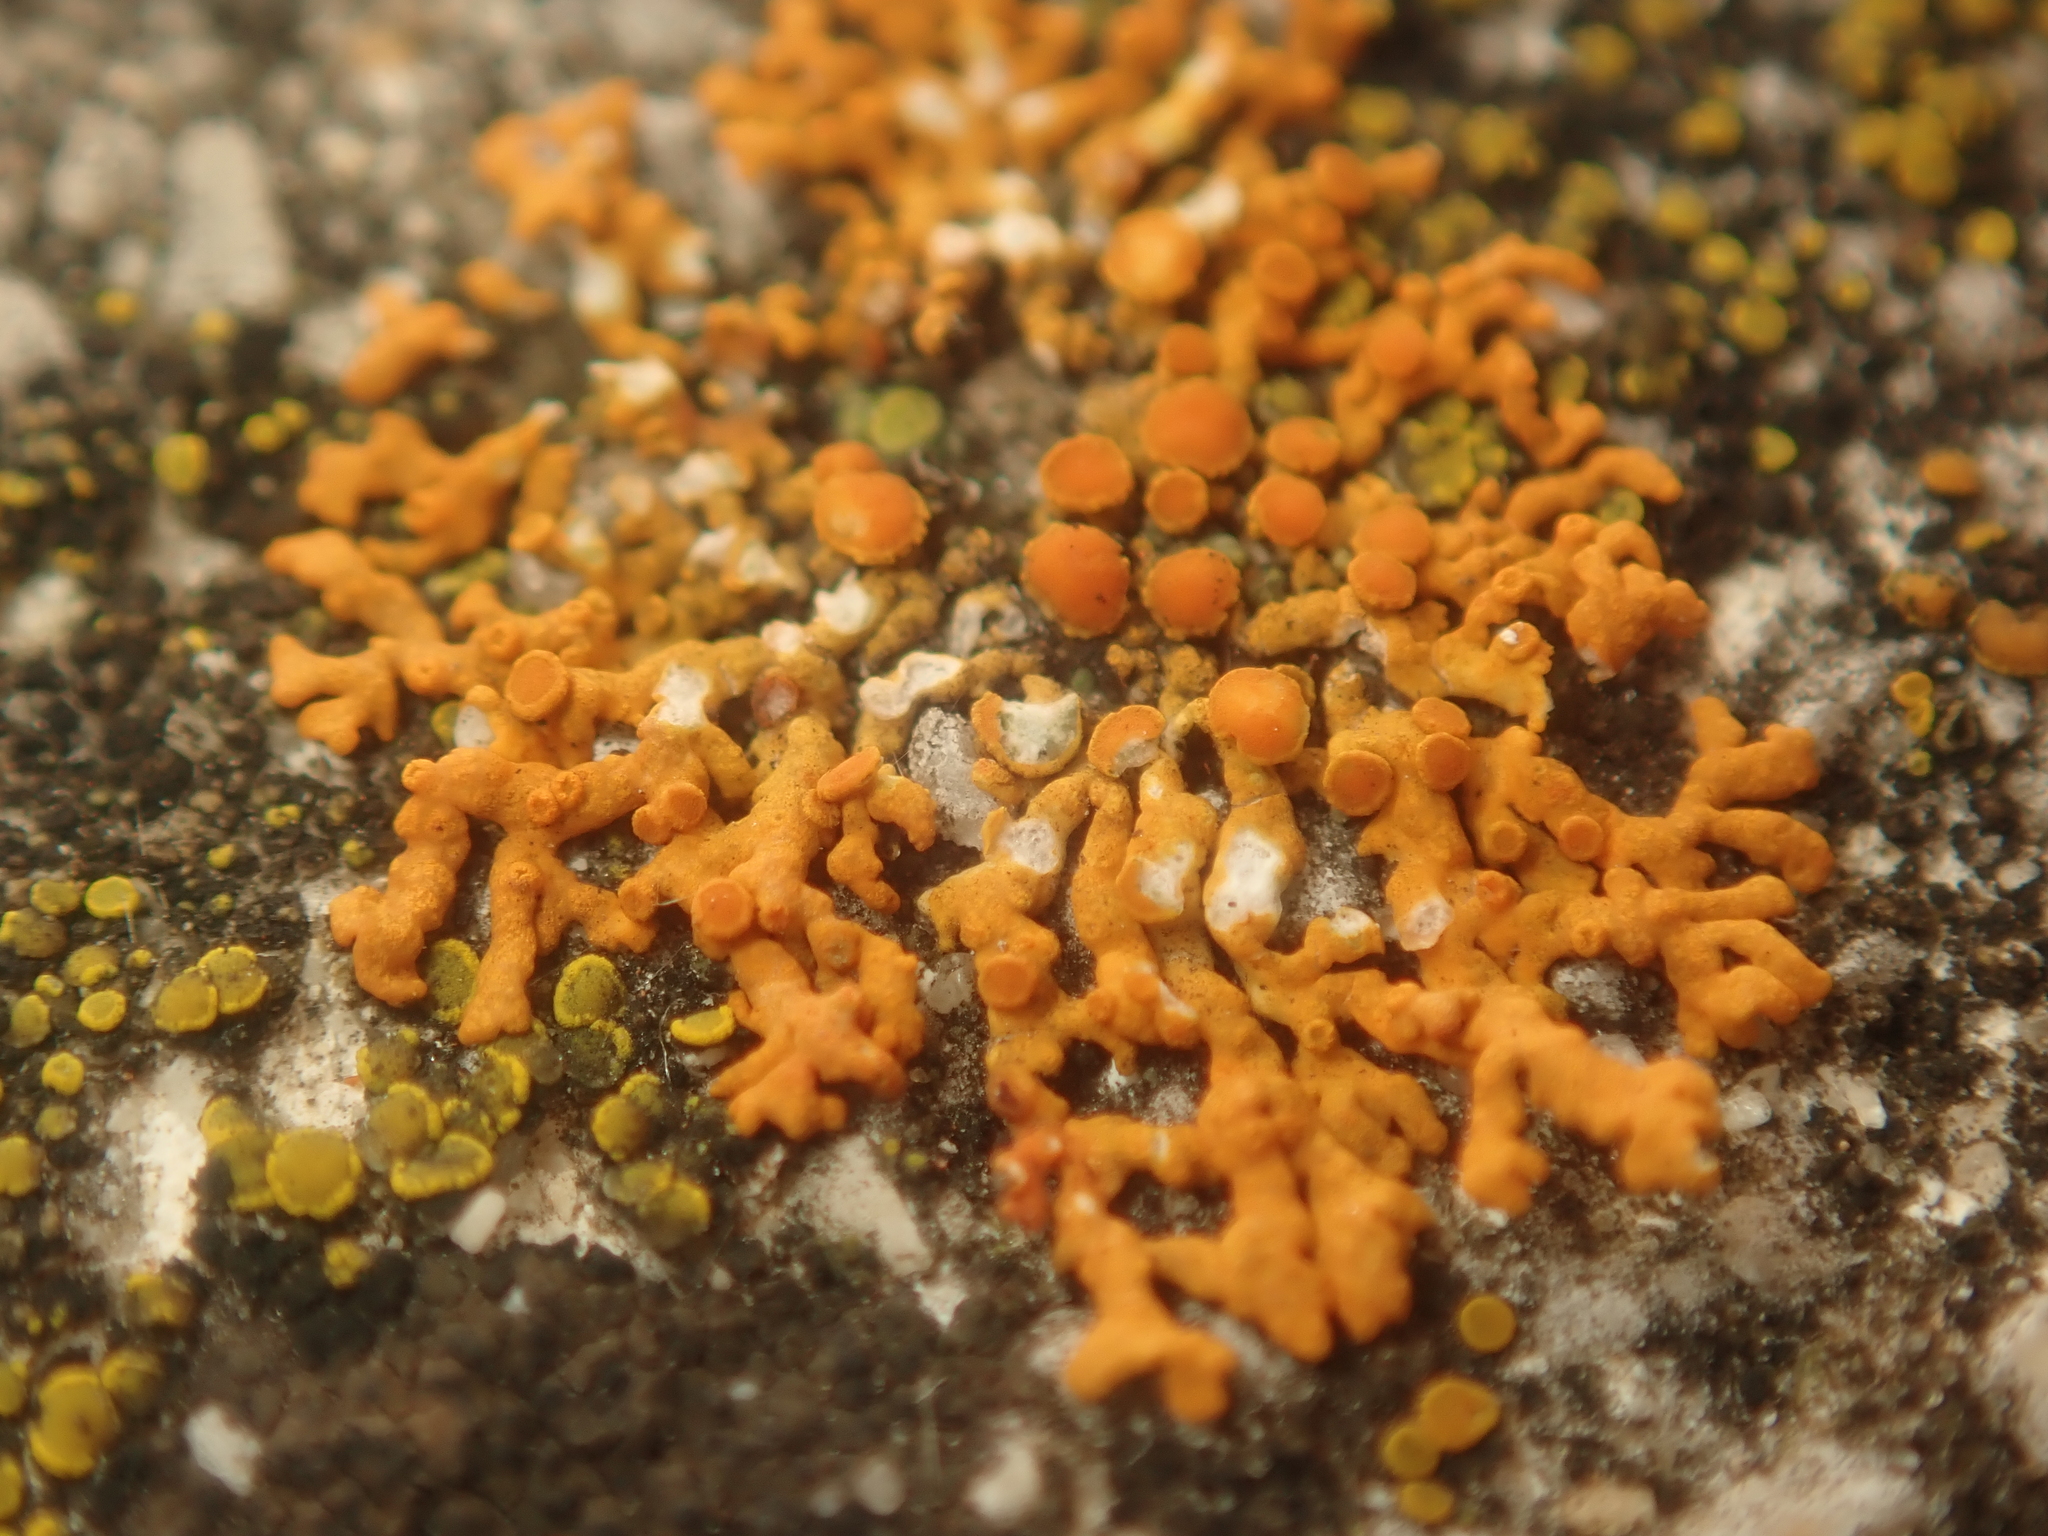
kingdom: Fungi
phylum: Ascomycota
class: Lecanoromycetes
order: Teloschistales
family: Teloschistaceae
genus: Xanthoria
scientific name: Xanthoria elegans
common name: Elegant sunburst lichen
